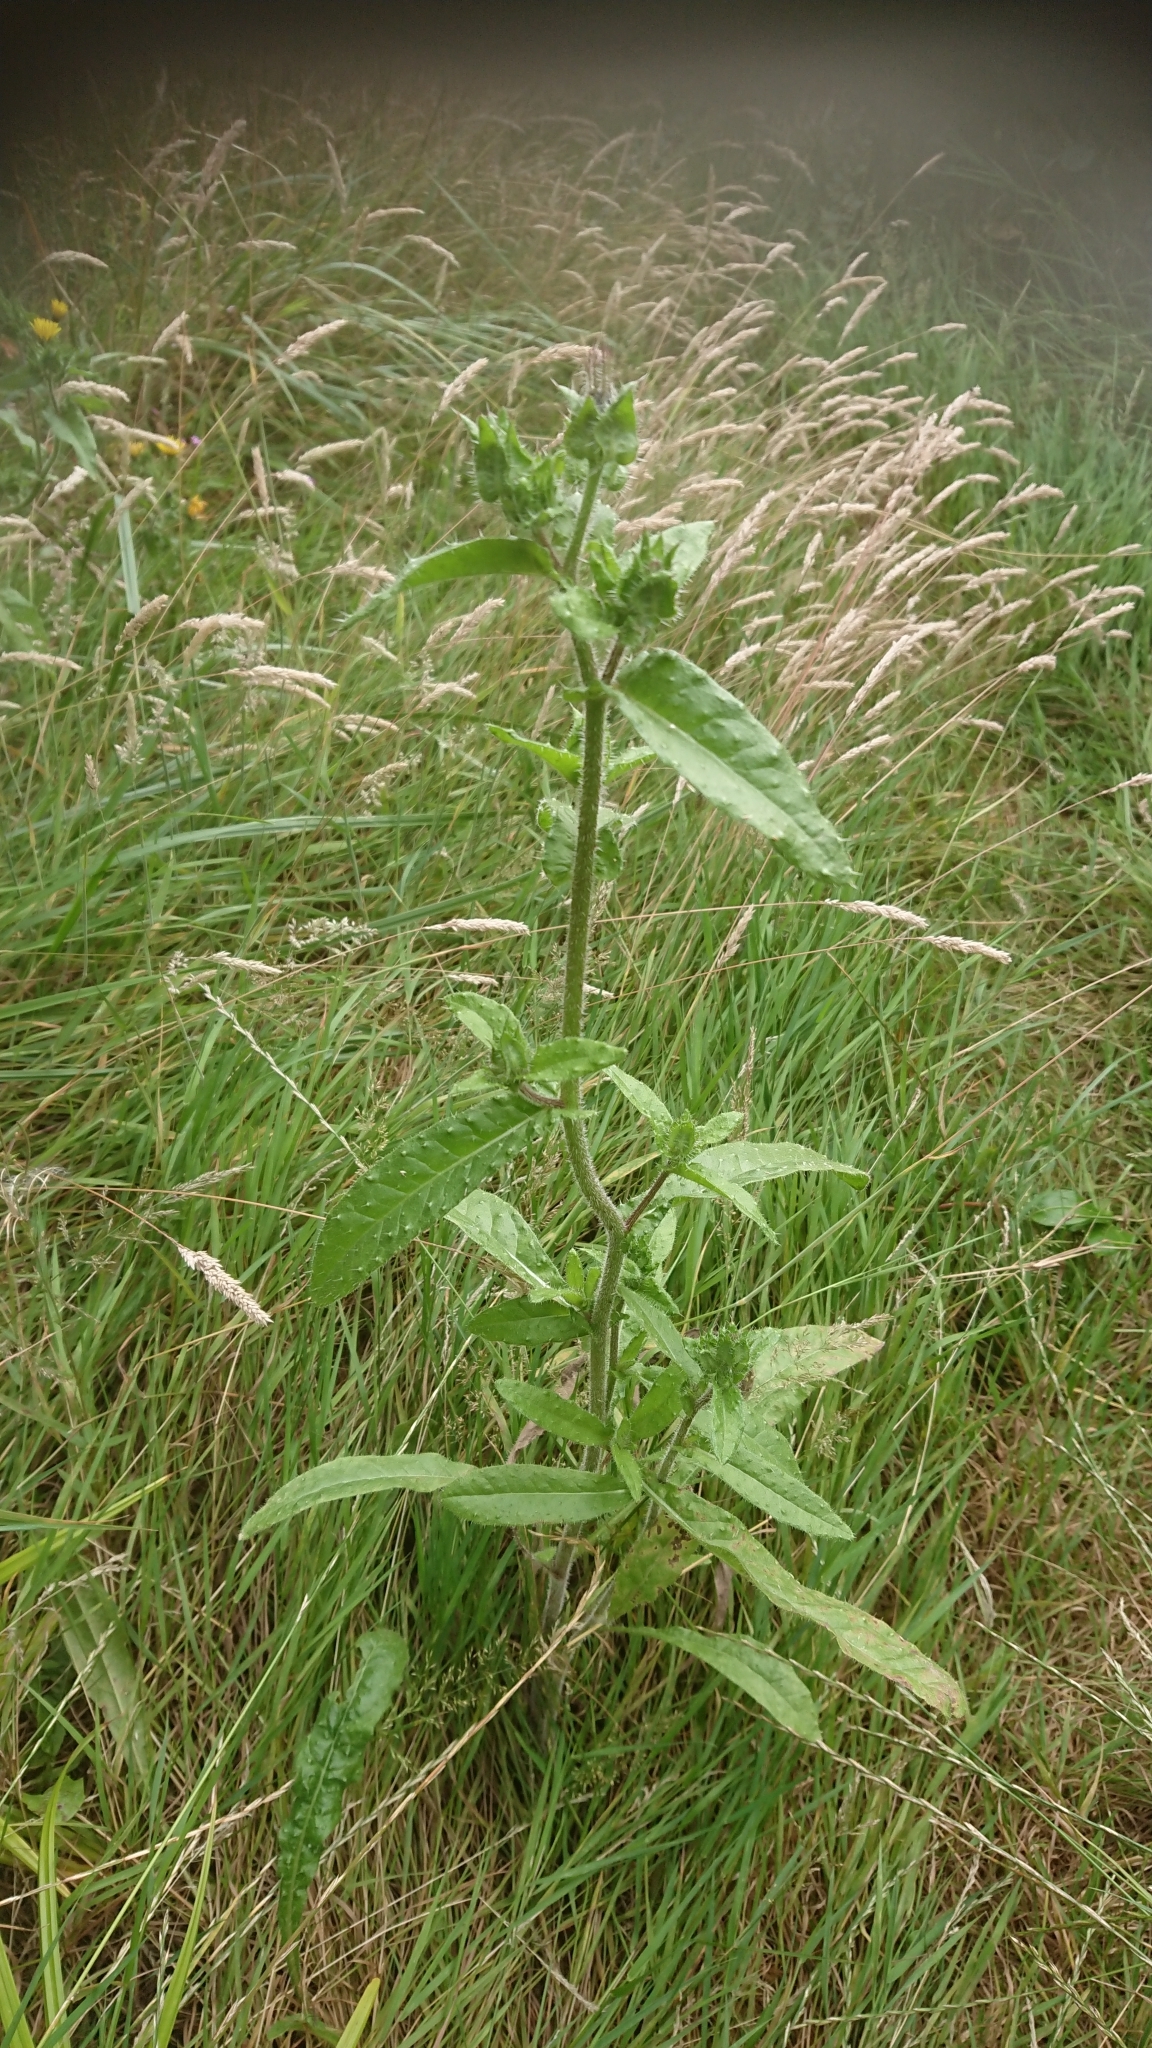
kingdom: Plantae
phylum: Tracheophyta
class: Magnoliopsida
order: Asterales
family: Asteraceae
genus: Helminthotheca
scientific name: Helminthotheca echioides
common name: Ox-tongue
